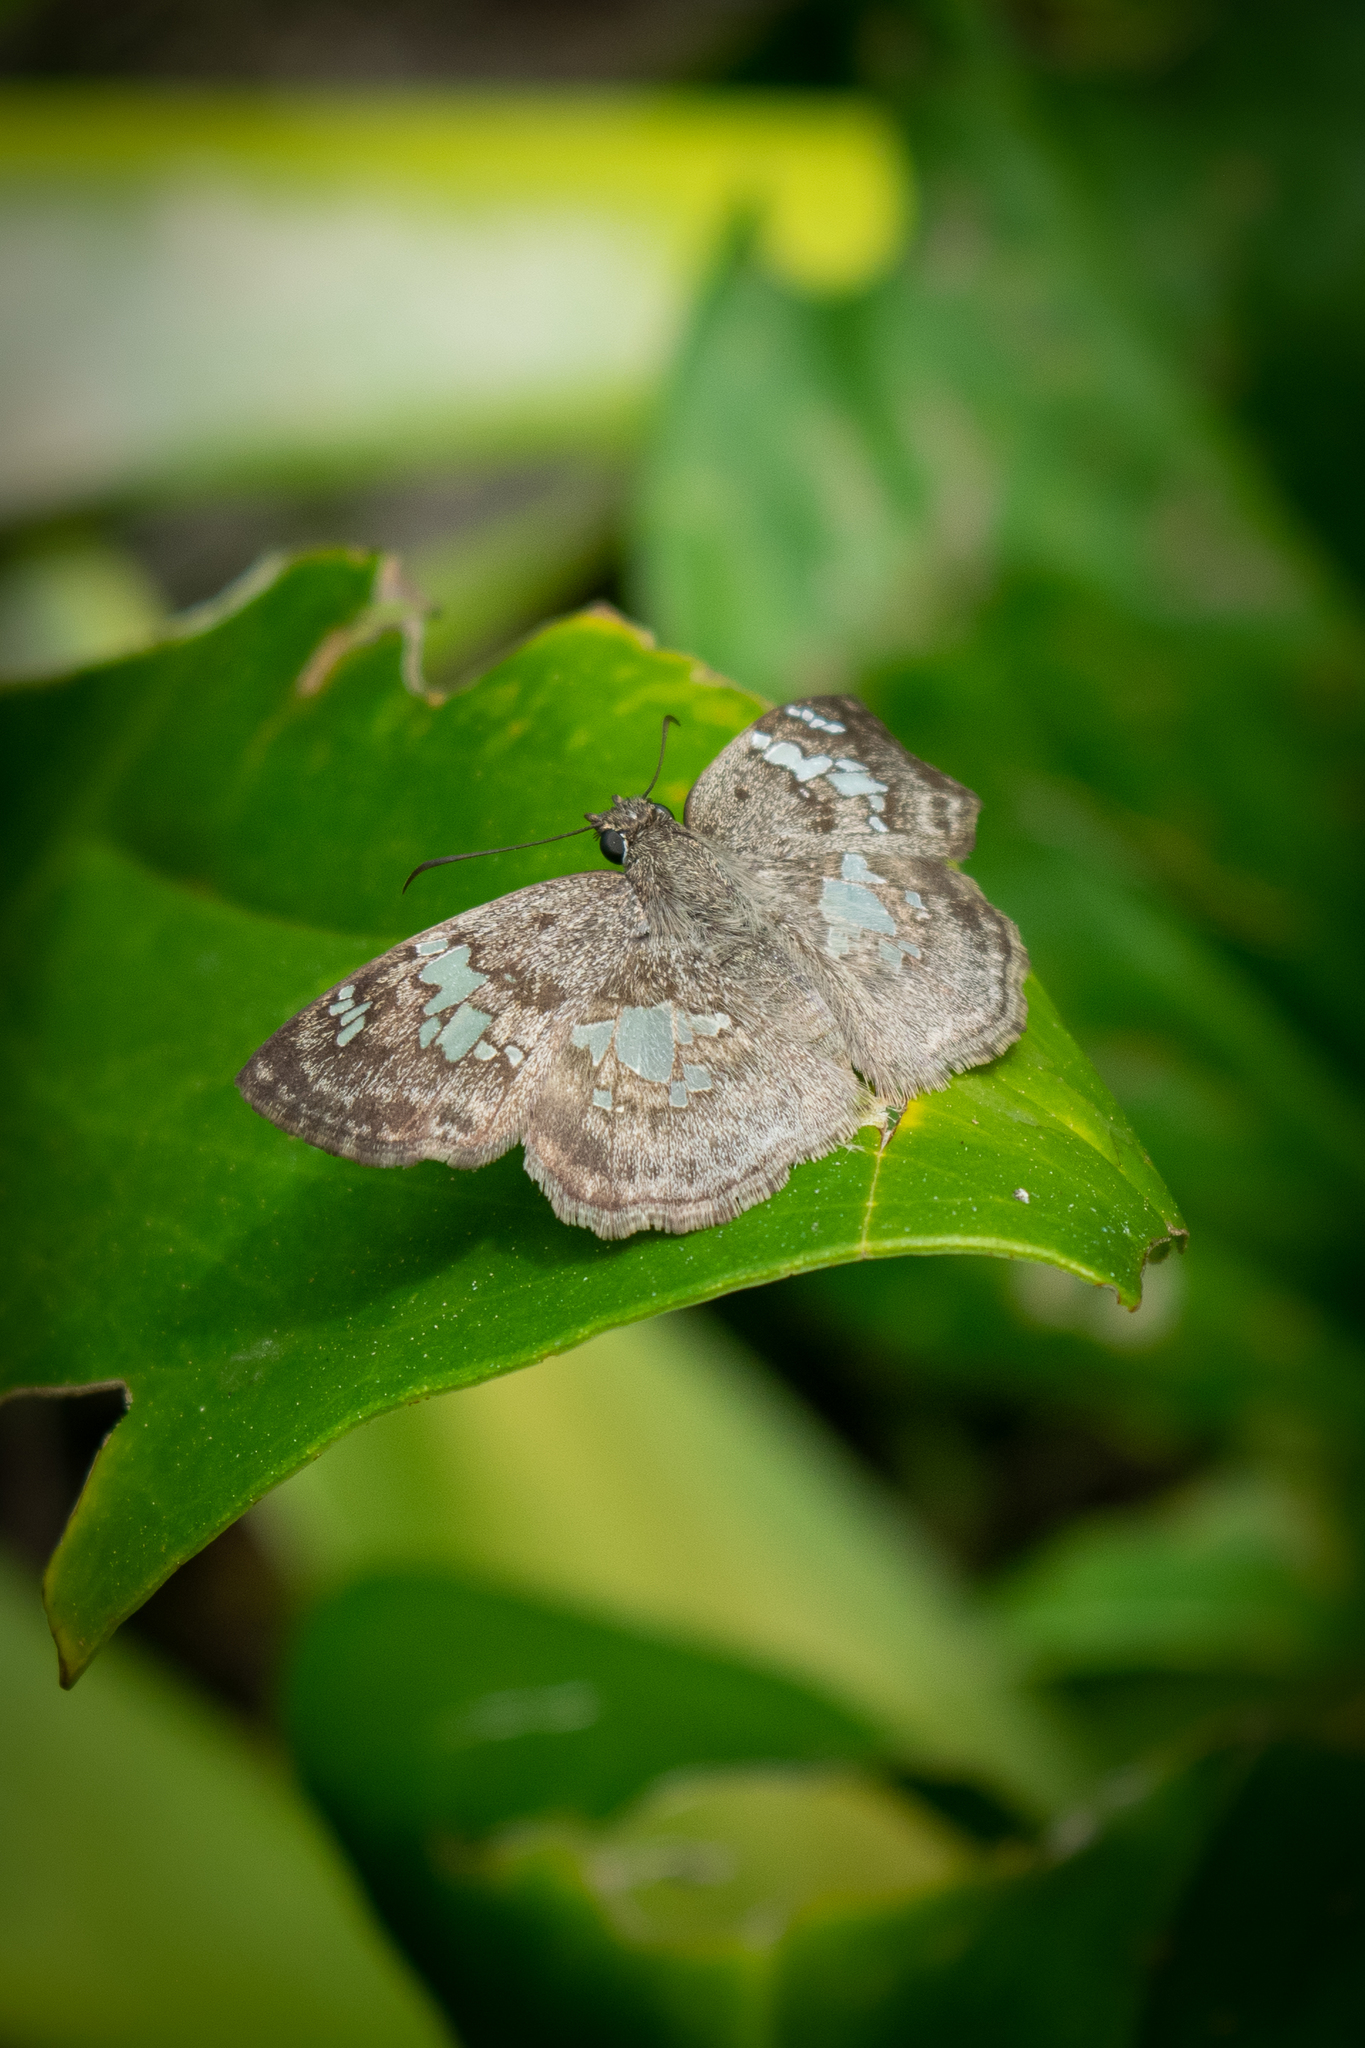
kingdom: Animalia
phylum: Arthropoda
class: Insecta
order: Lepidoptera
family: Hesperiidae
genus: Xenophanes
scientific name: Xenophanes tryxus
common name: Glassy-winged skipper
